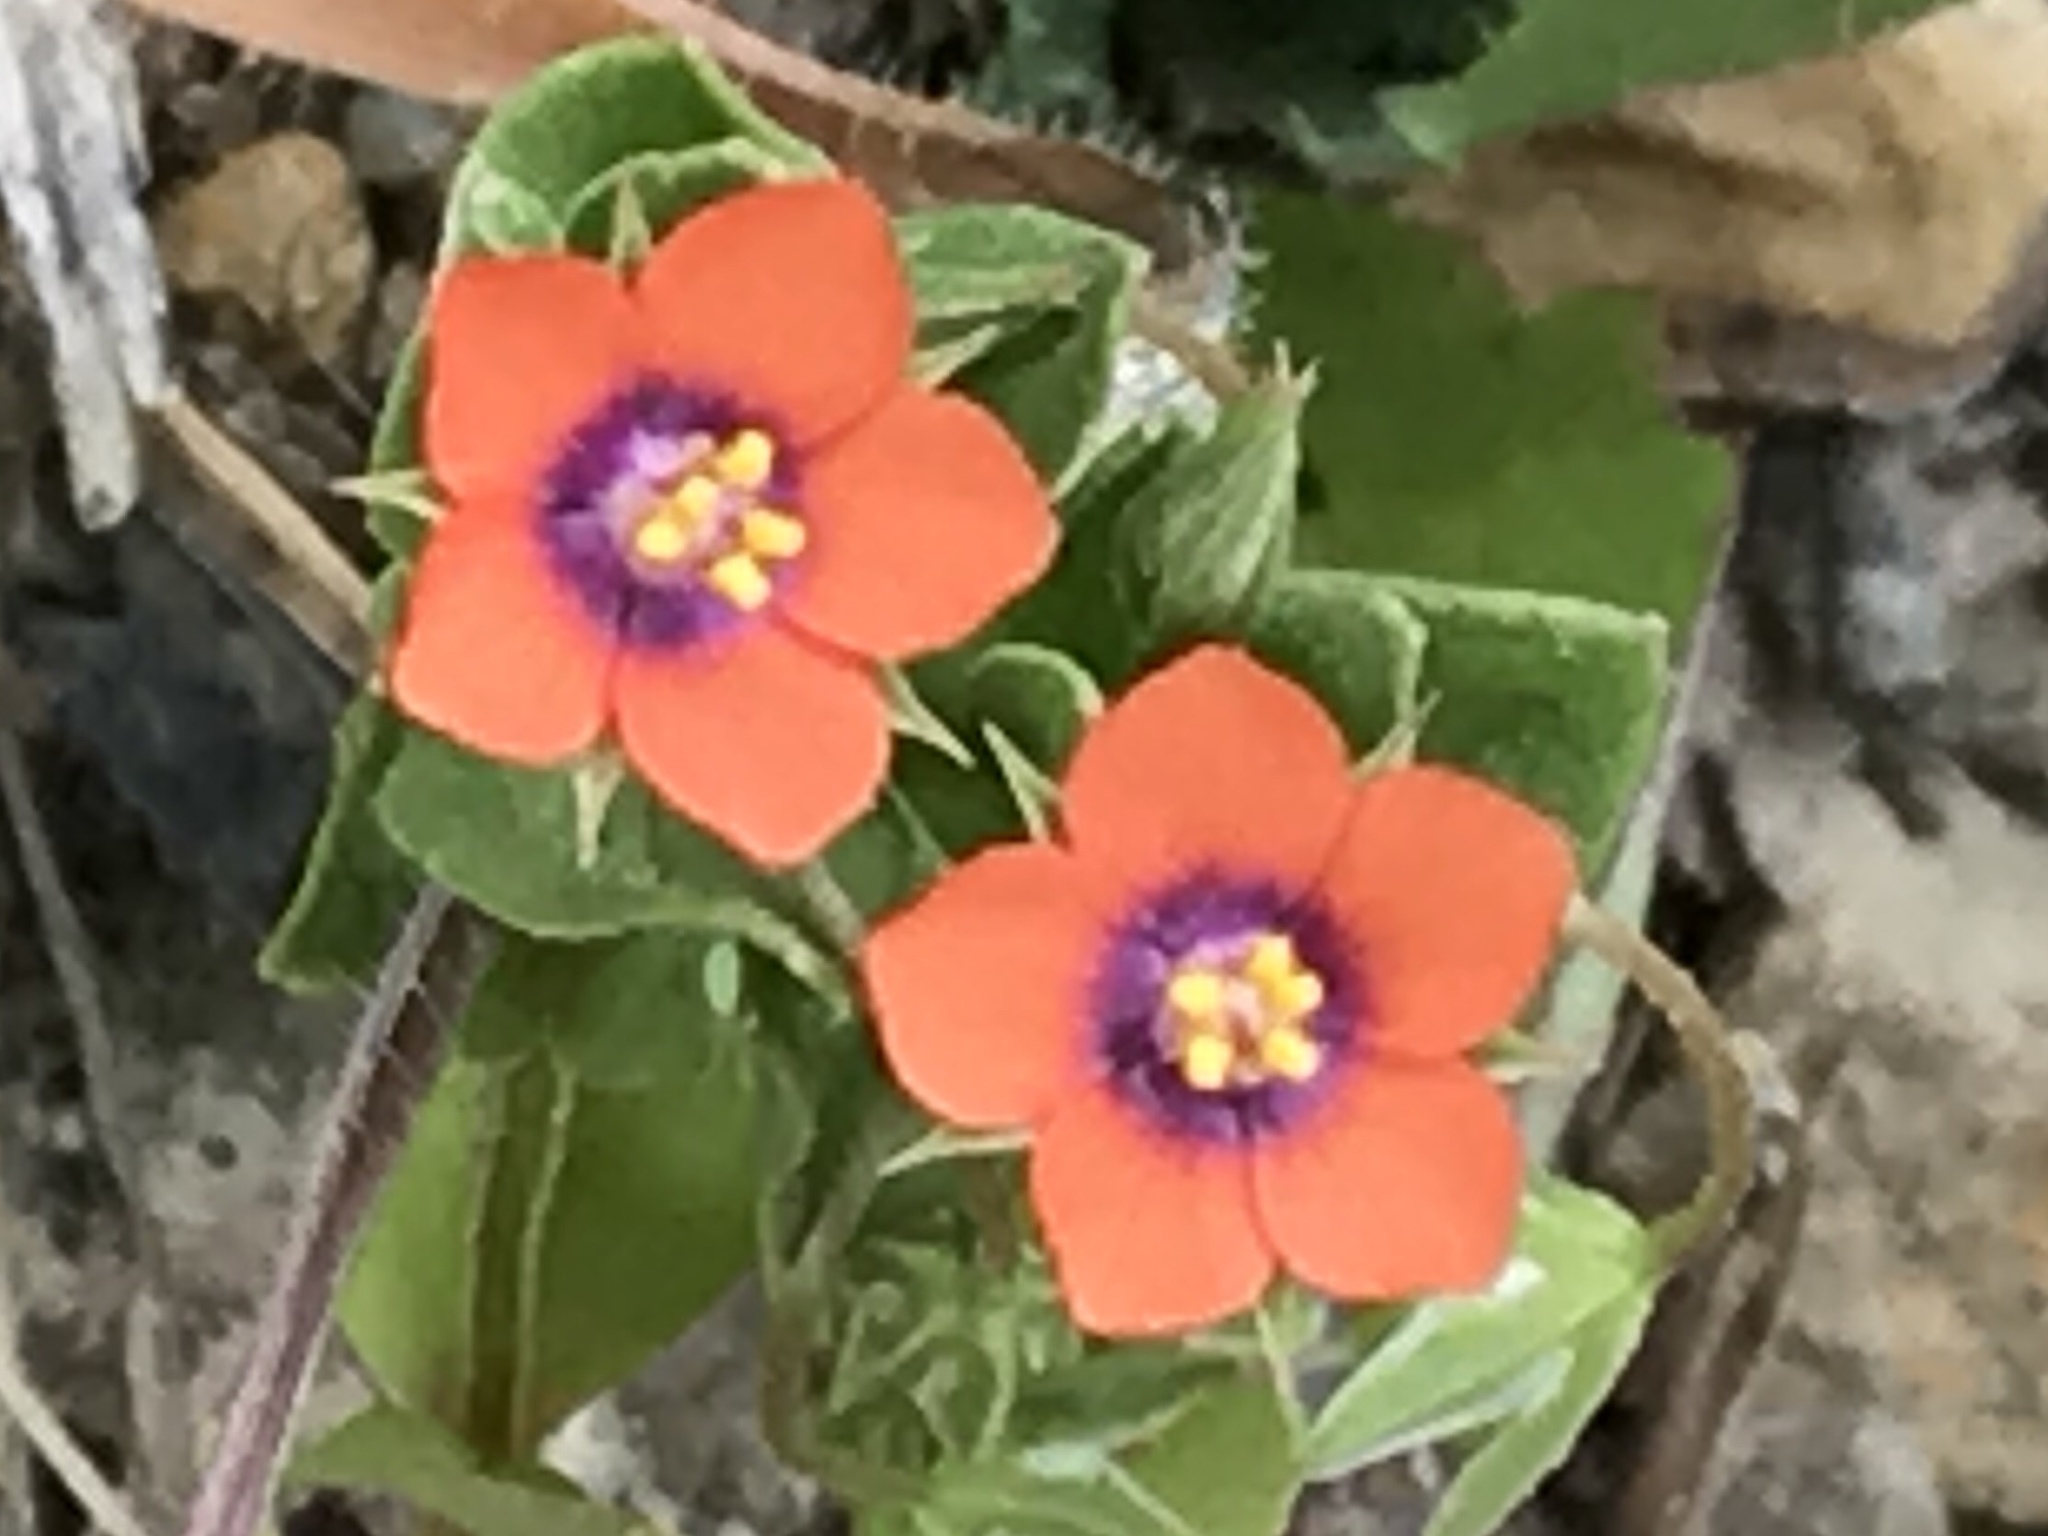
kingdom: Plantae
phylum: Tracheophyta
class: Magnoliopsida
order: Ericales
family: Primulaceae
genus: Lysimachia
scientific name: Lysimachia arvensis
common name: Scarlet pimpernel
